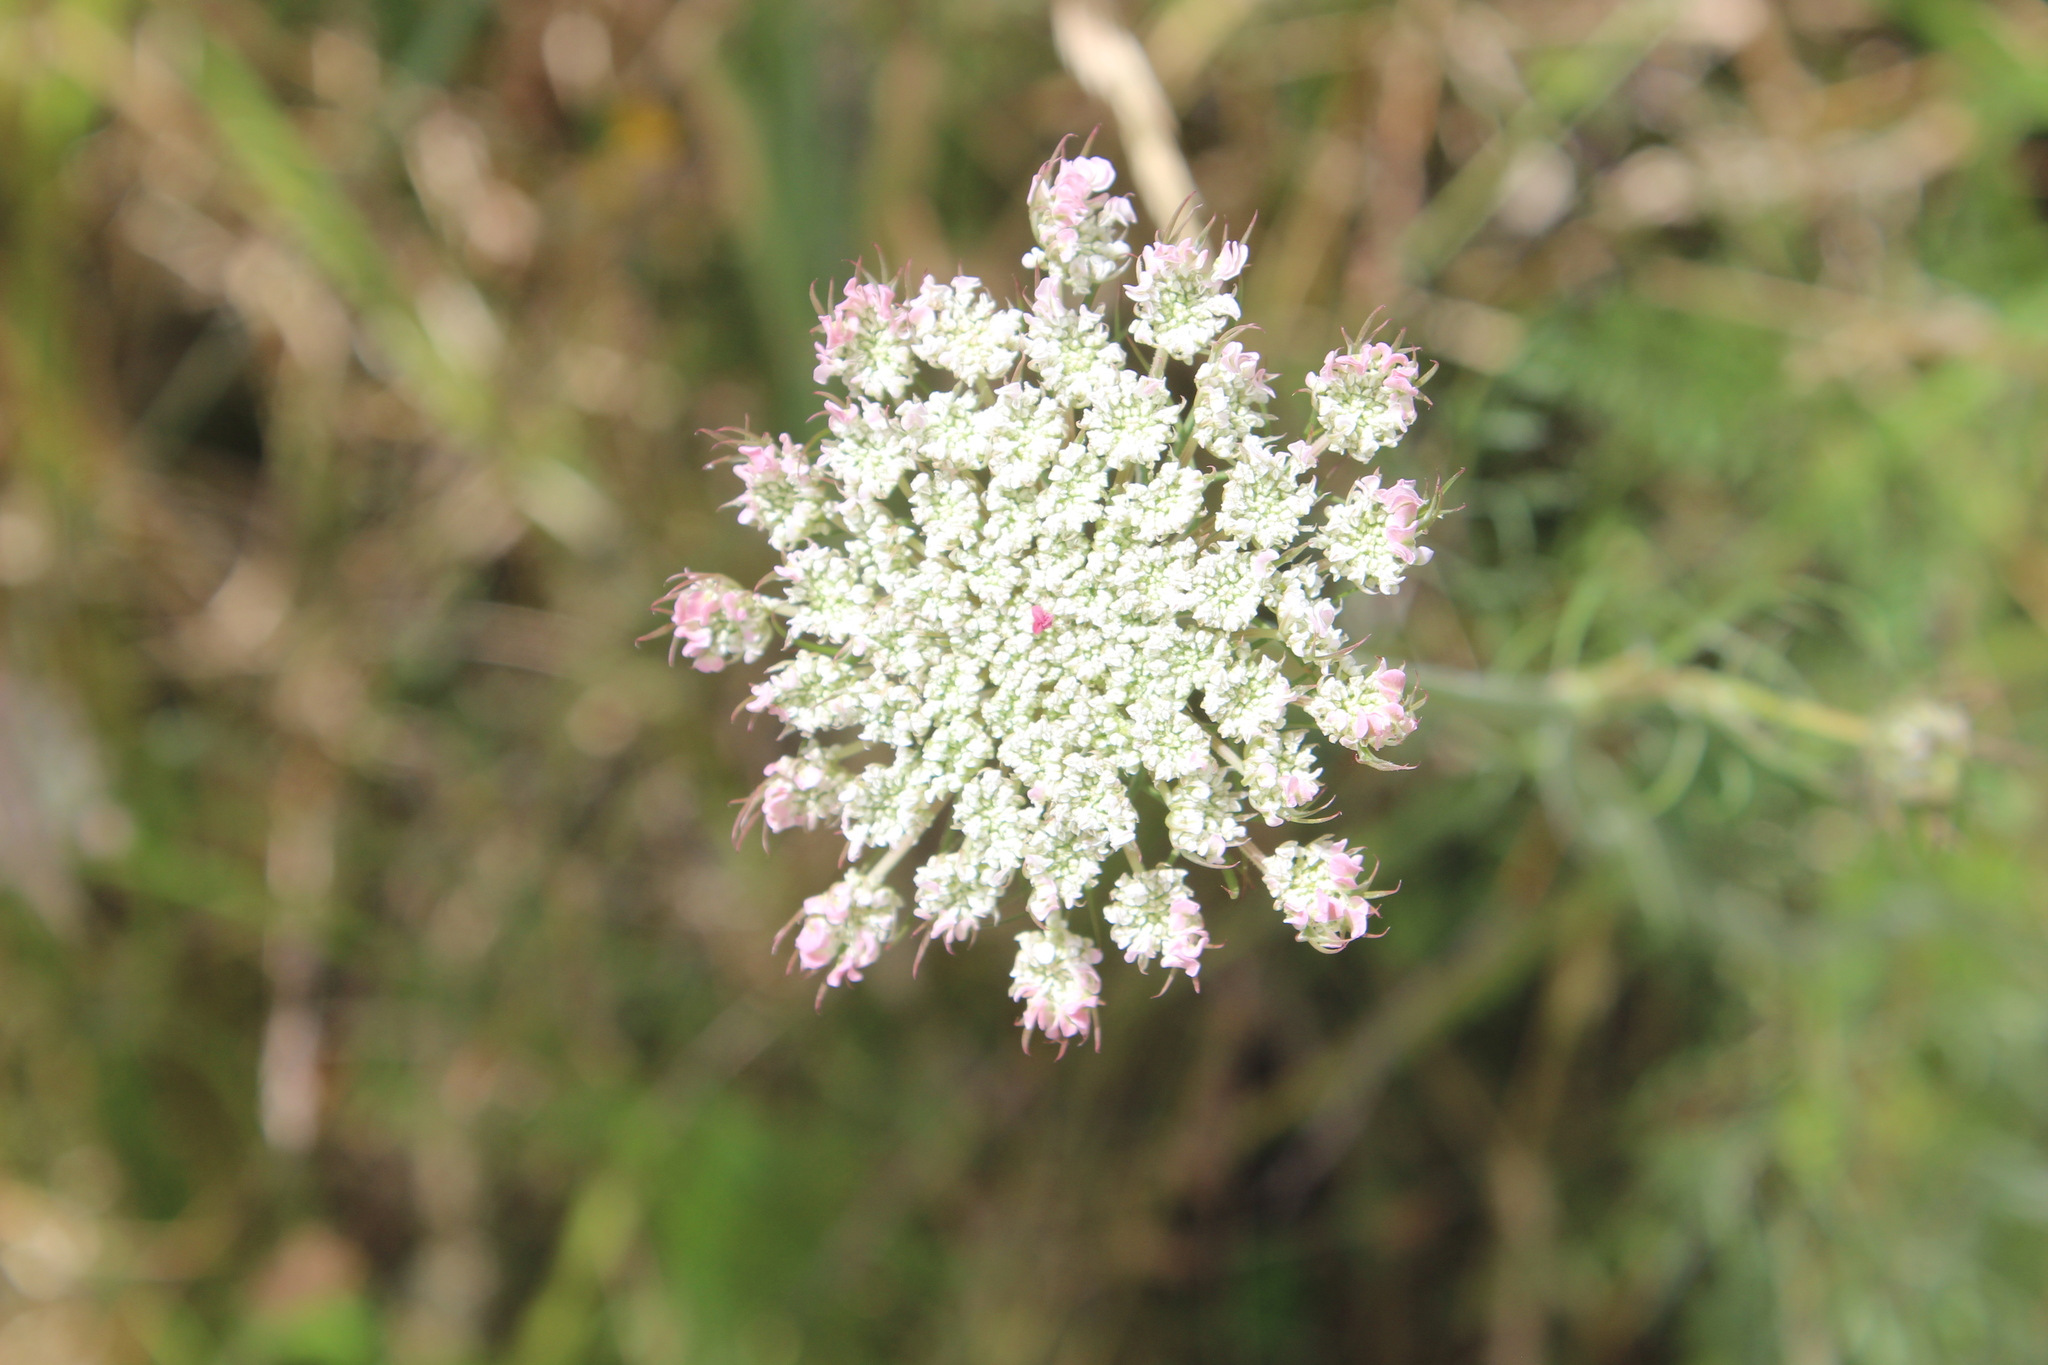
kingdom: Plantae
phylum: Tracheophyta
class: Magnoliopsida
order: Apiales
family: Apiaceae
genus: Daucus
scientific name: Daucus carota
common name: Wild carrot
